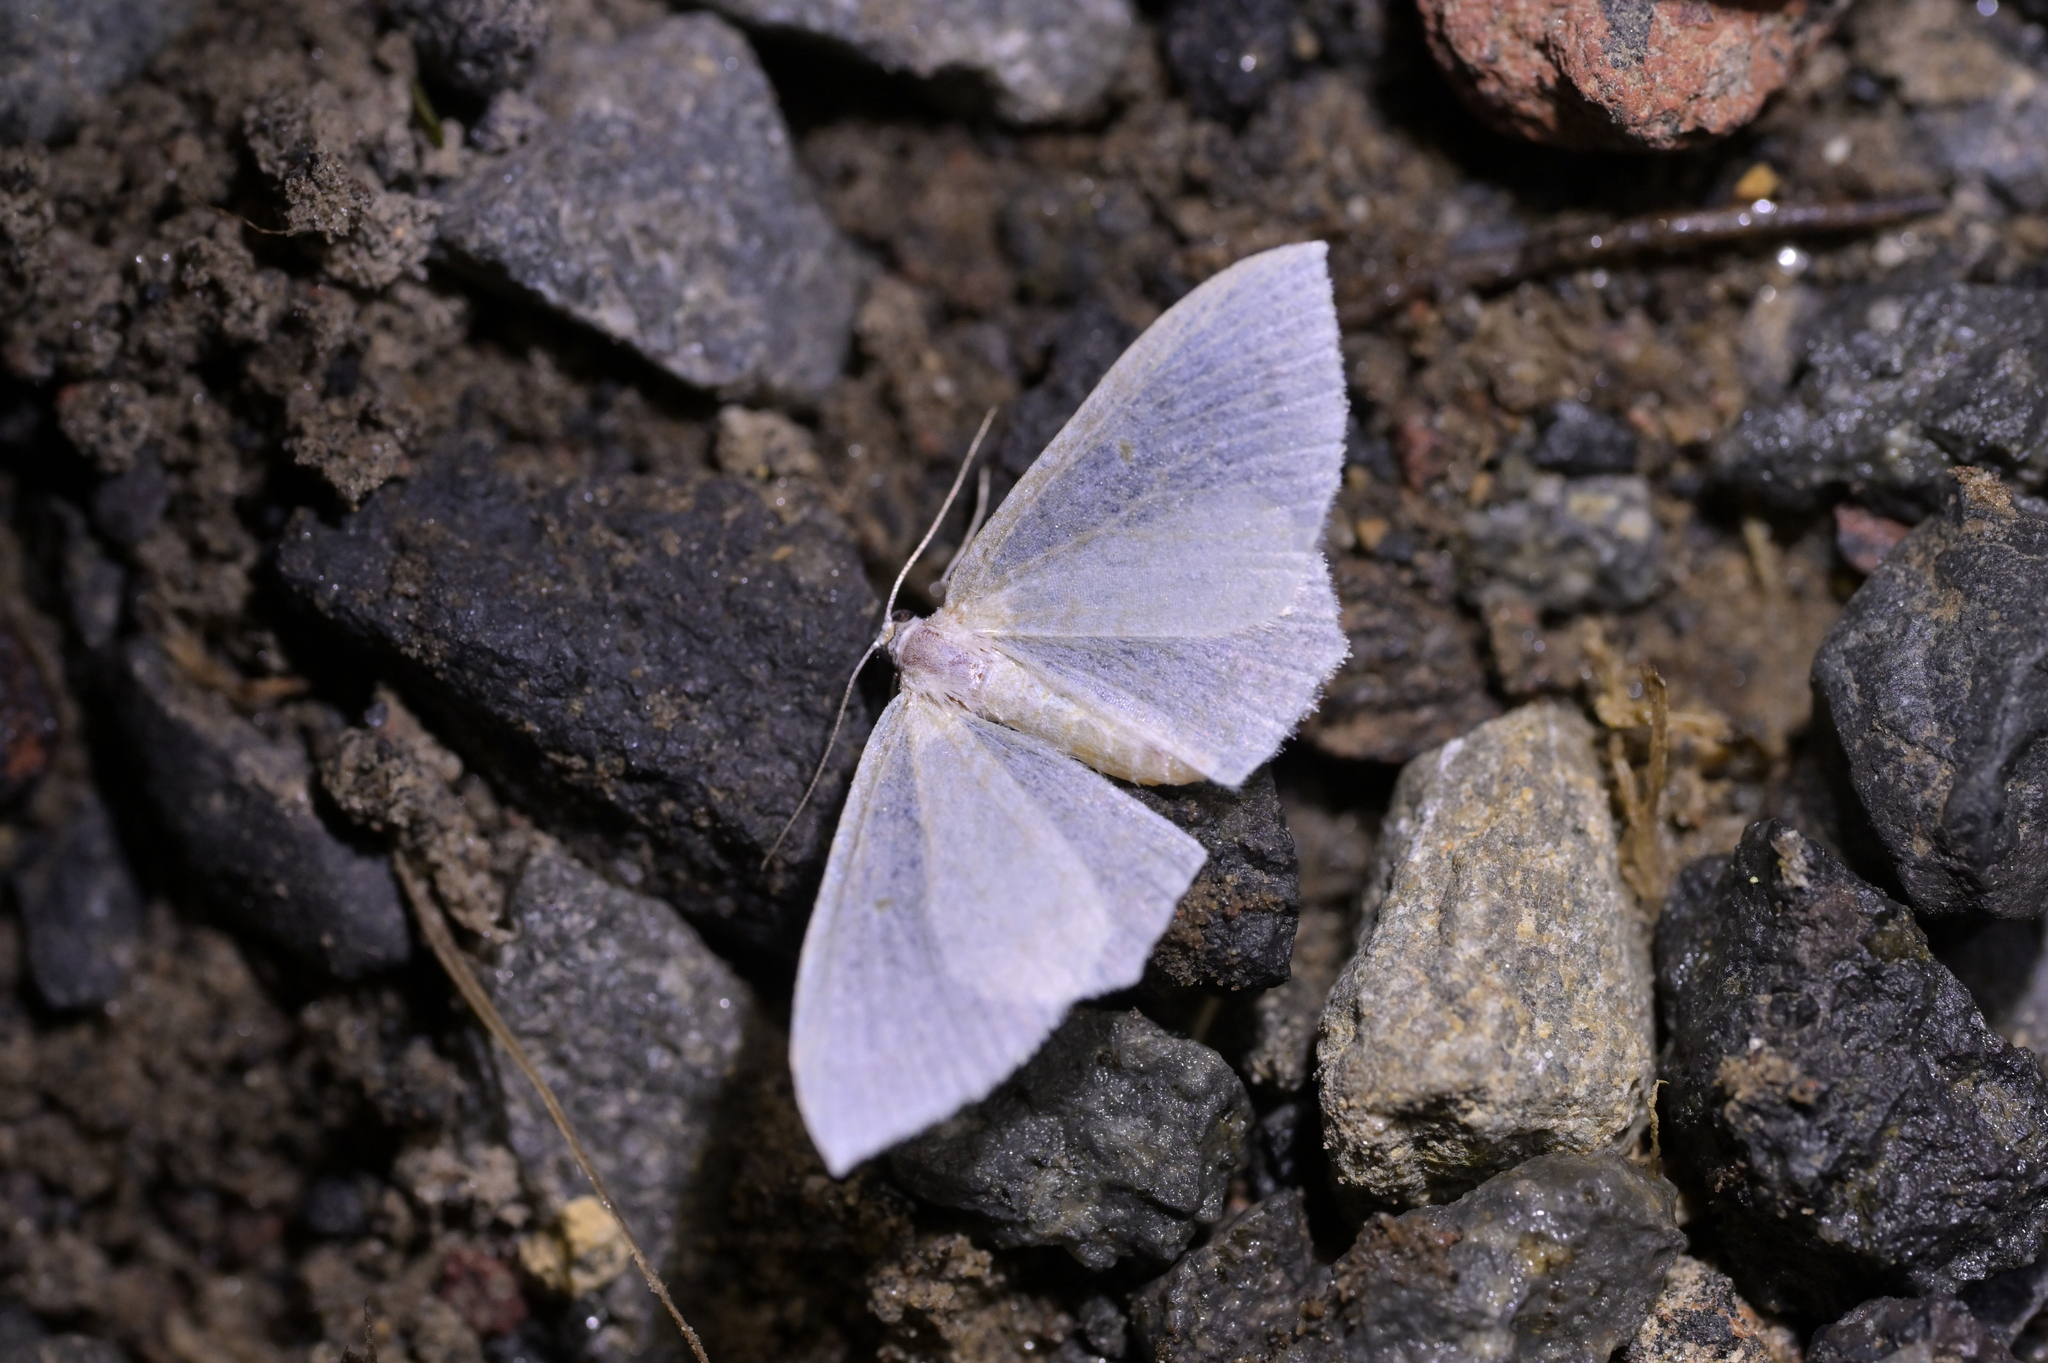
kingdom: Animalia
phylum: Arthropoda
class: Insecta
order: Lepidoptera
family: Geometridae
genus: Poecilasthena
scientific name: Poecilasthena pulchraria
